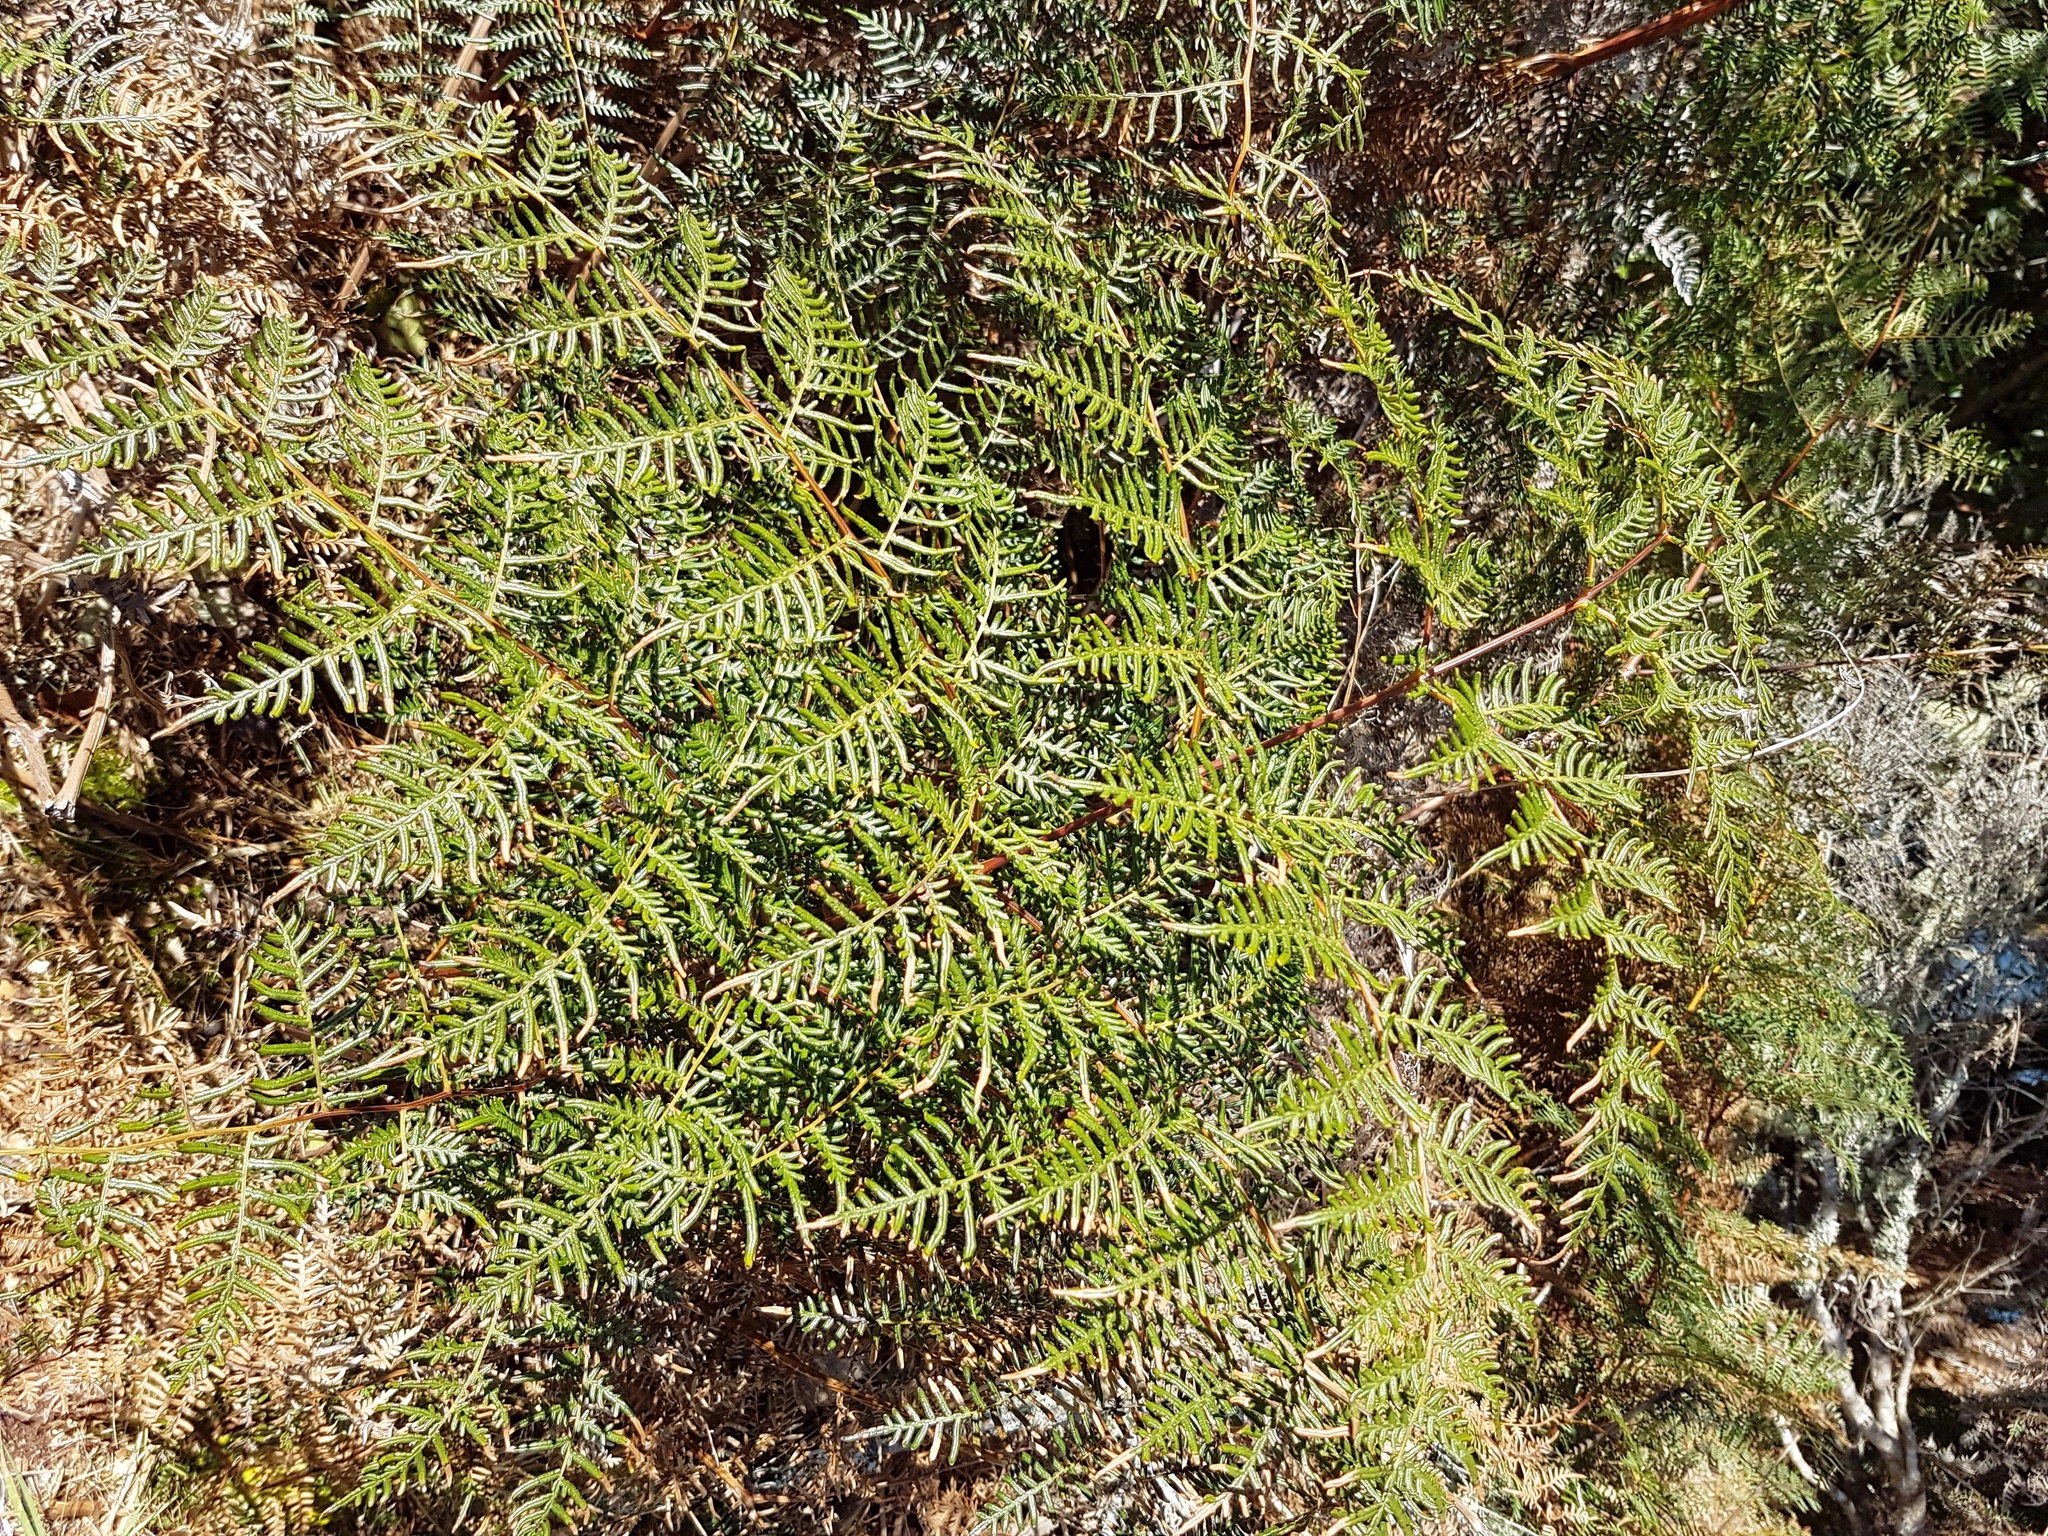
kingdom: Plantae
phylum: Tracheophyta
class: Polypodiopsida
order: Polypodiales
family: Dennstaedtiaceae
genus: Pteridium
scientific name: Pteridium esculentum
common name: Bracken fern
